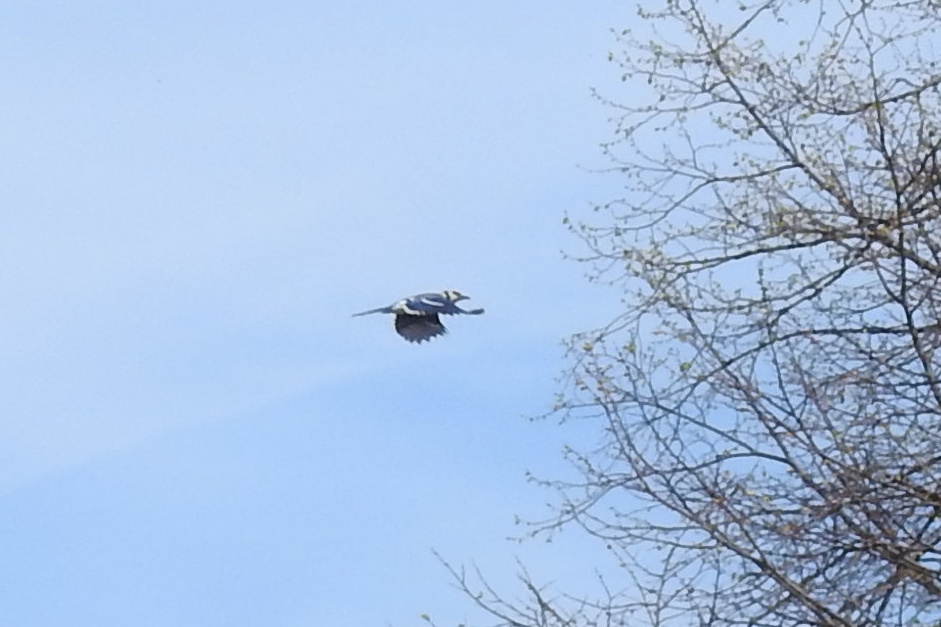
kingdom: Animalia
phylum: Chordata
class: Aves
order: Passeriformes
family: Corvidae
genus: Cyanocitta
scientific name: Cyanocitta cristata
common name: Blue jay
